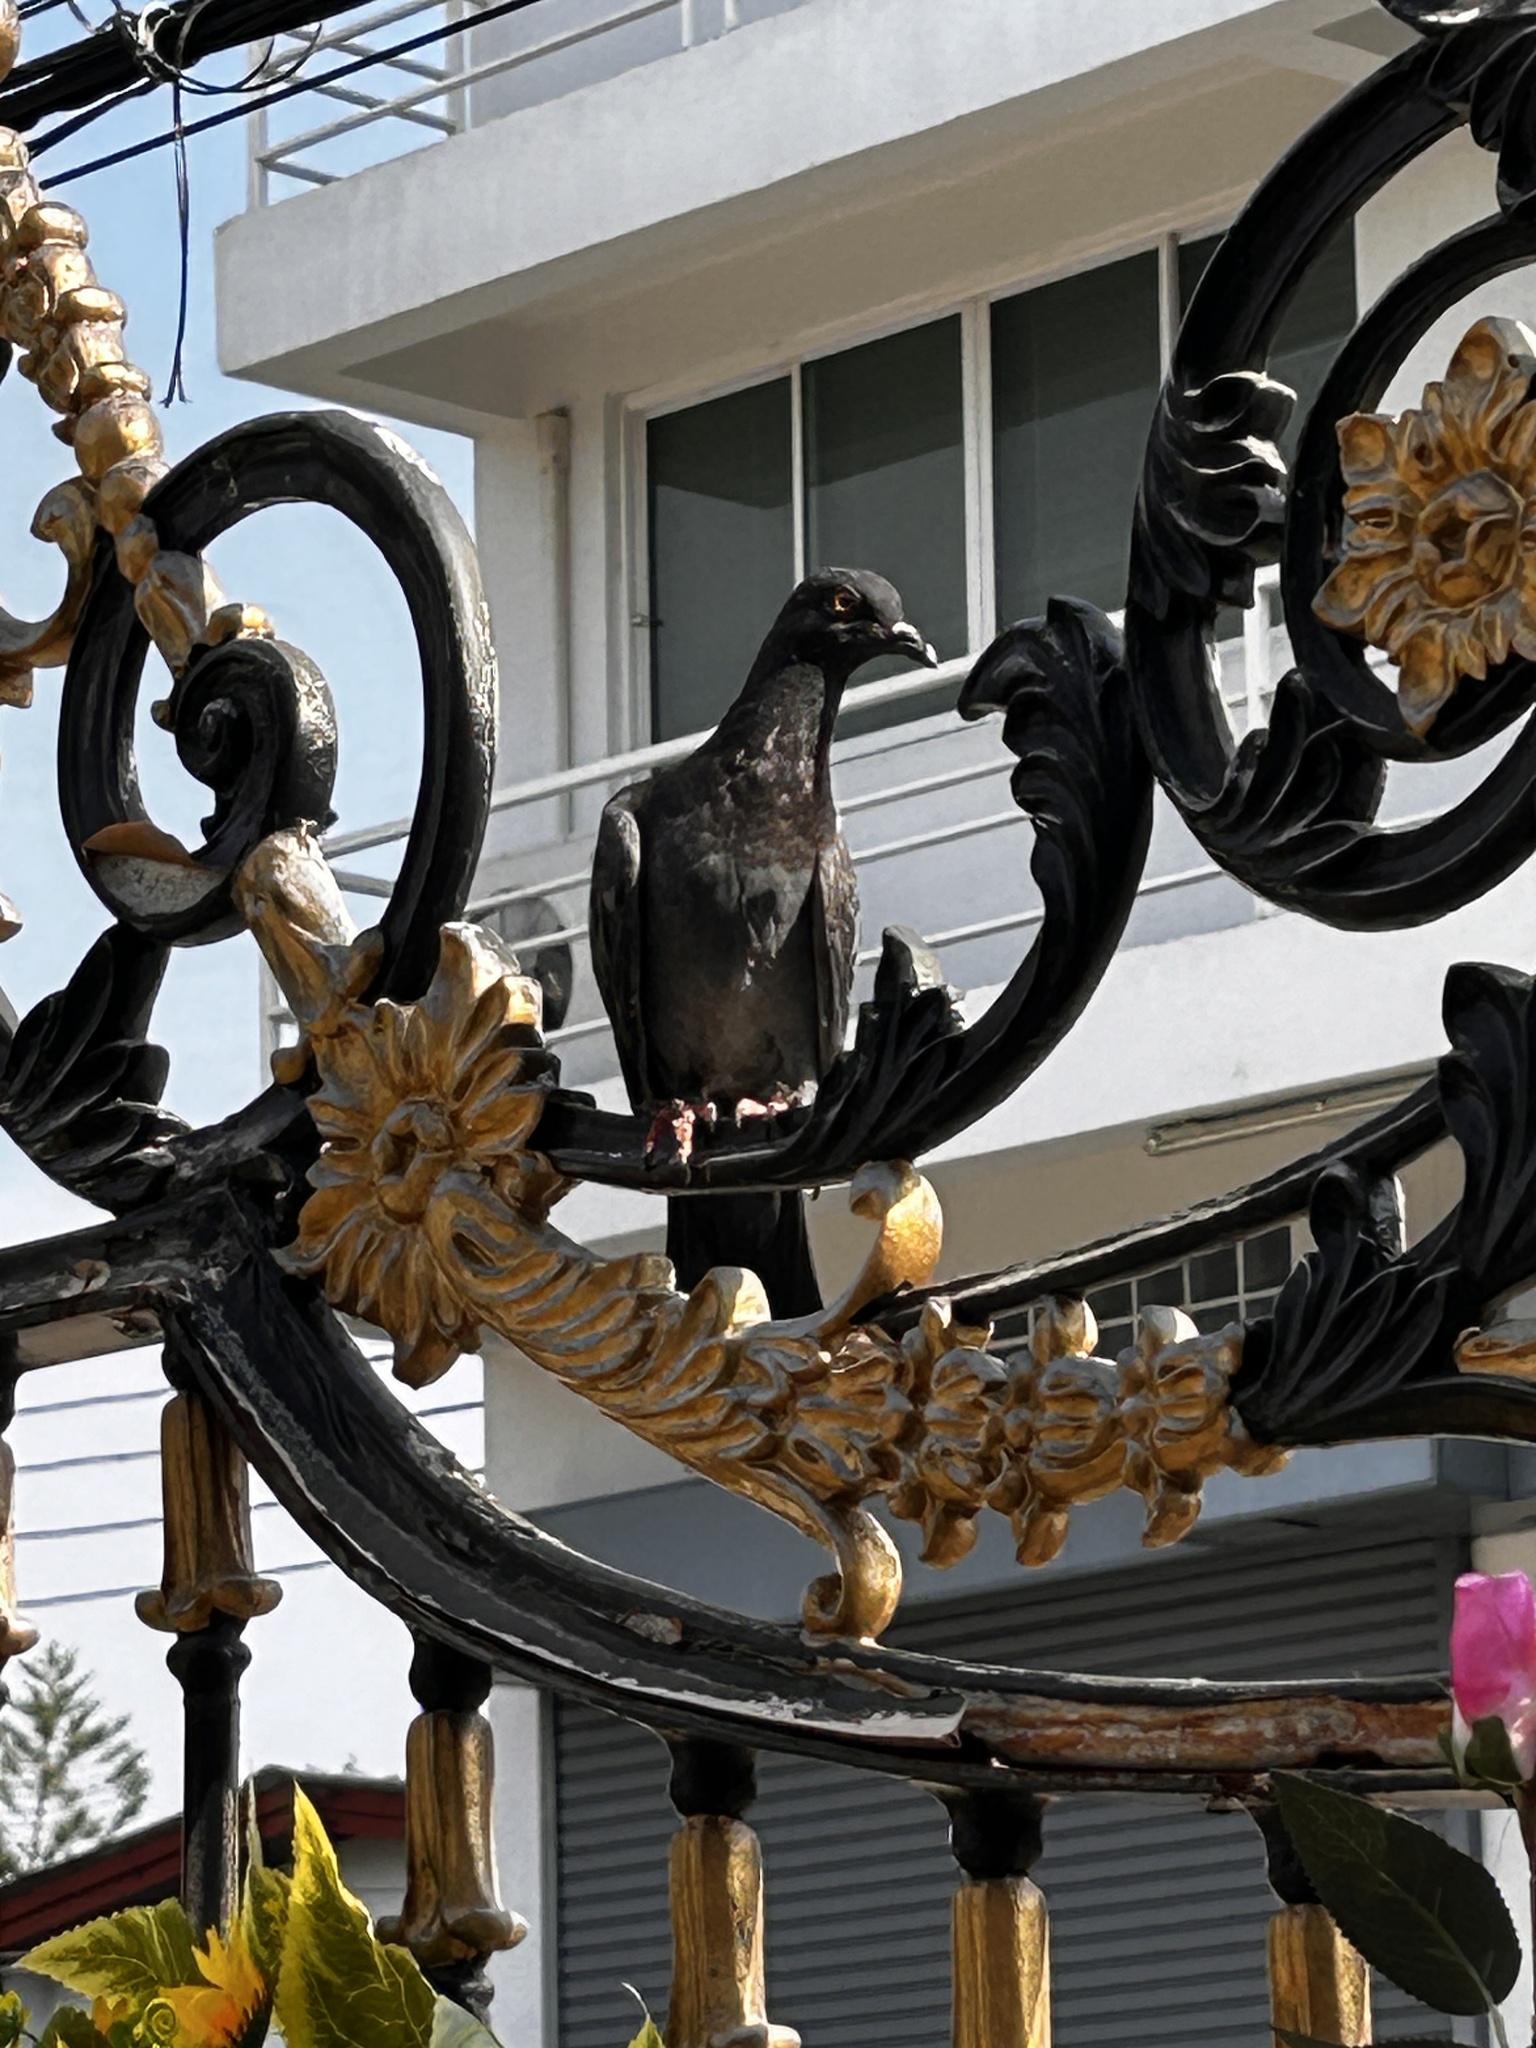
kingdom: Animalia
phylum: Chordata
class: Aves
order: Columbiformes
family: Columbidae
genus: Columba
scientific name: Columba livia
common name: Rock pigeon
